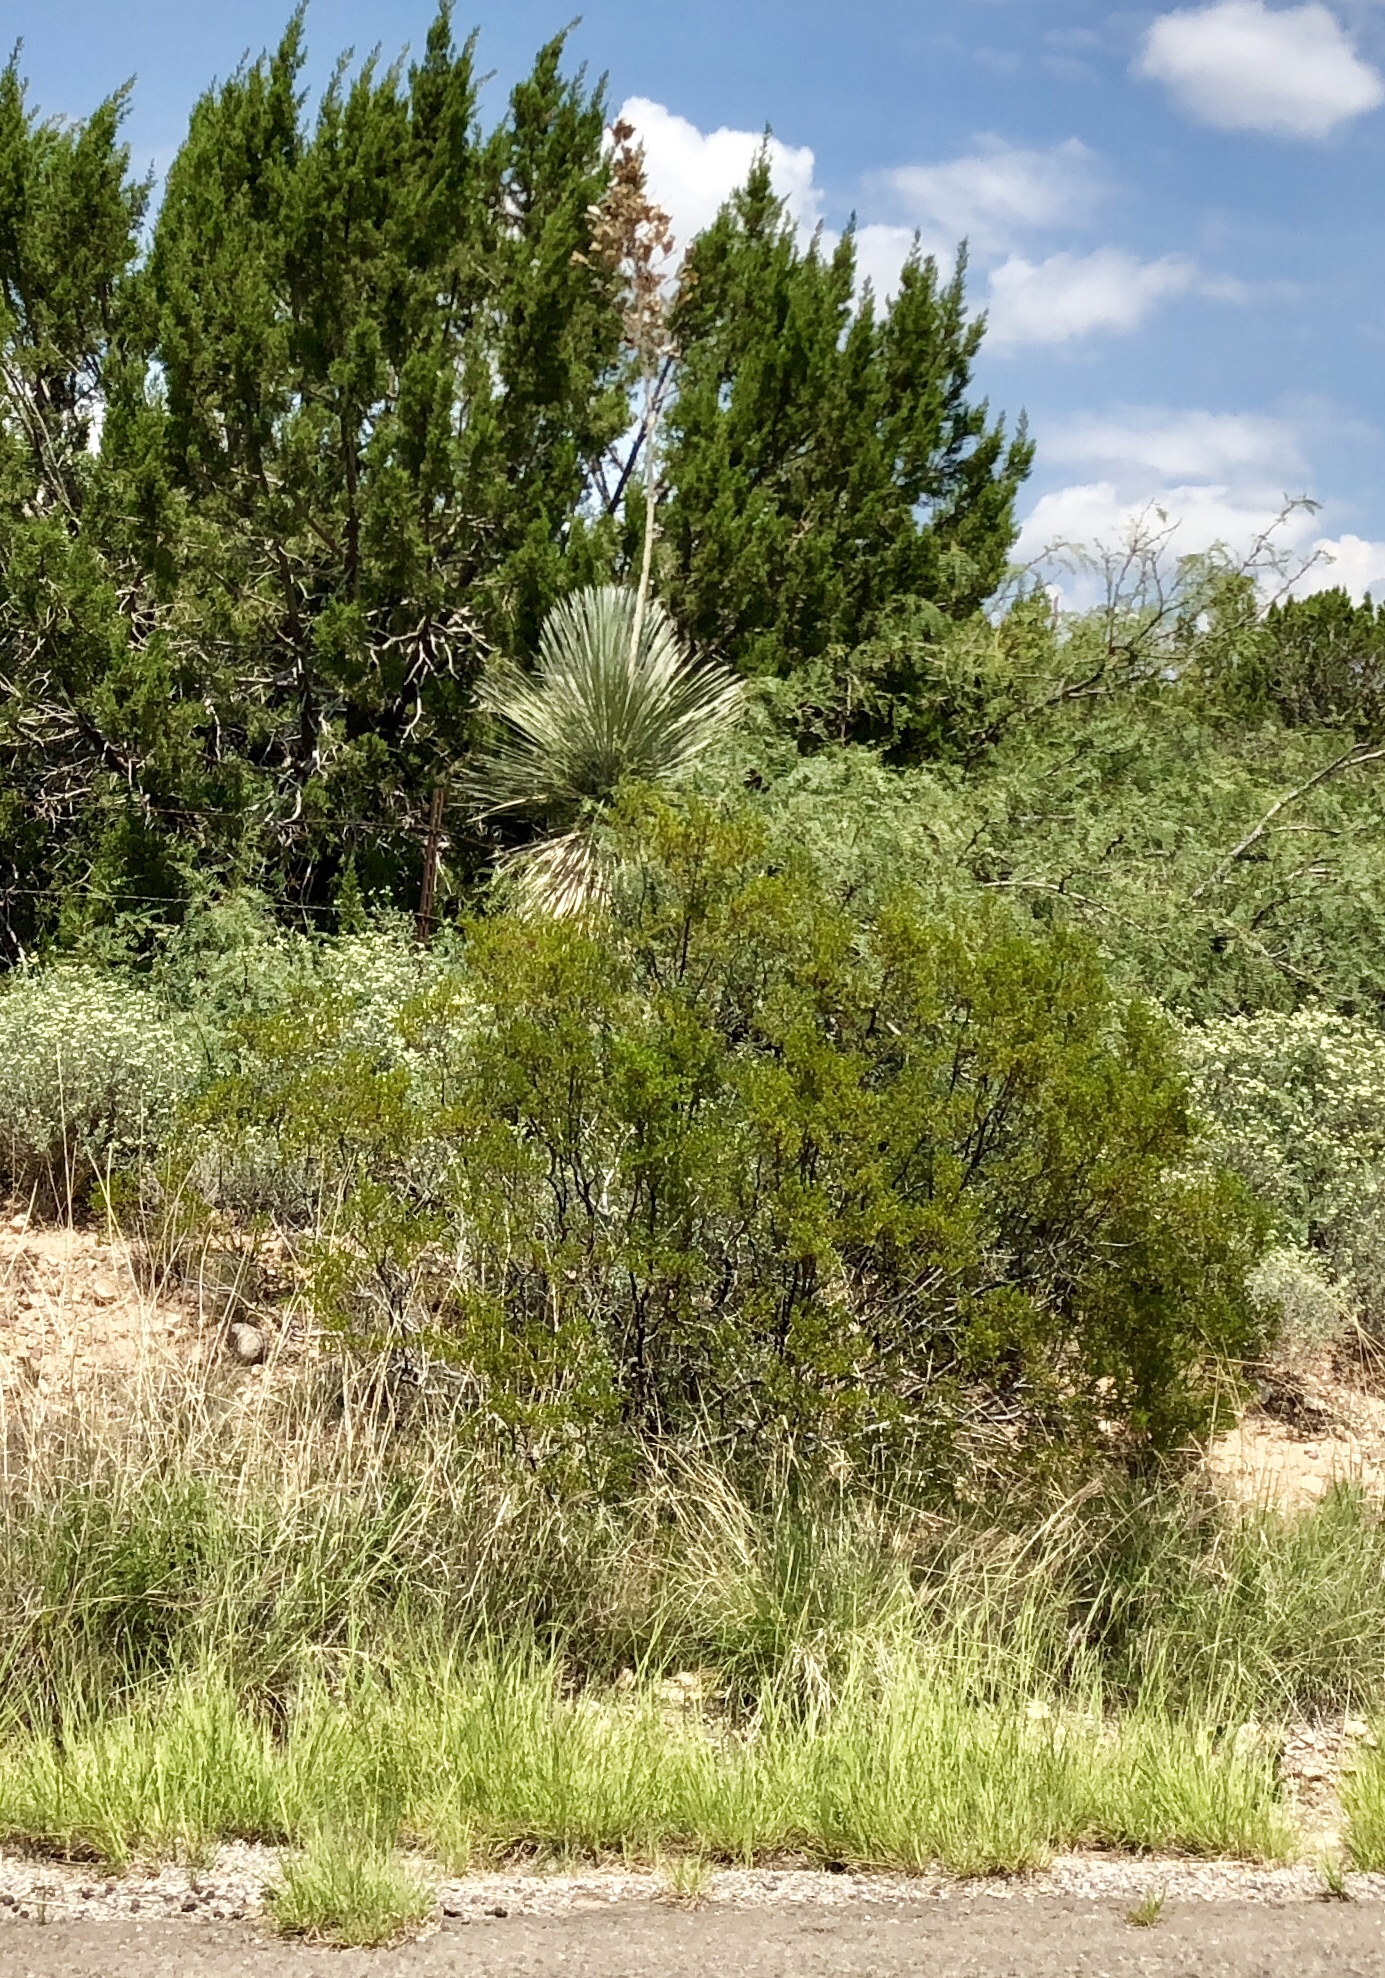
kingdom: Plantae
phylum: Tracheophyta
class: Magnoliopsida
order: Zygophyllales
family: Zygophyllaceae
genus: Larrea
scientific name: Larrea tridentata
